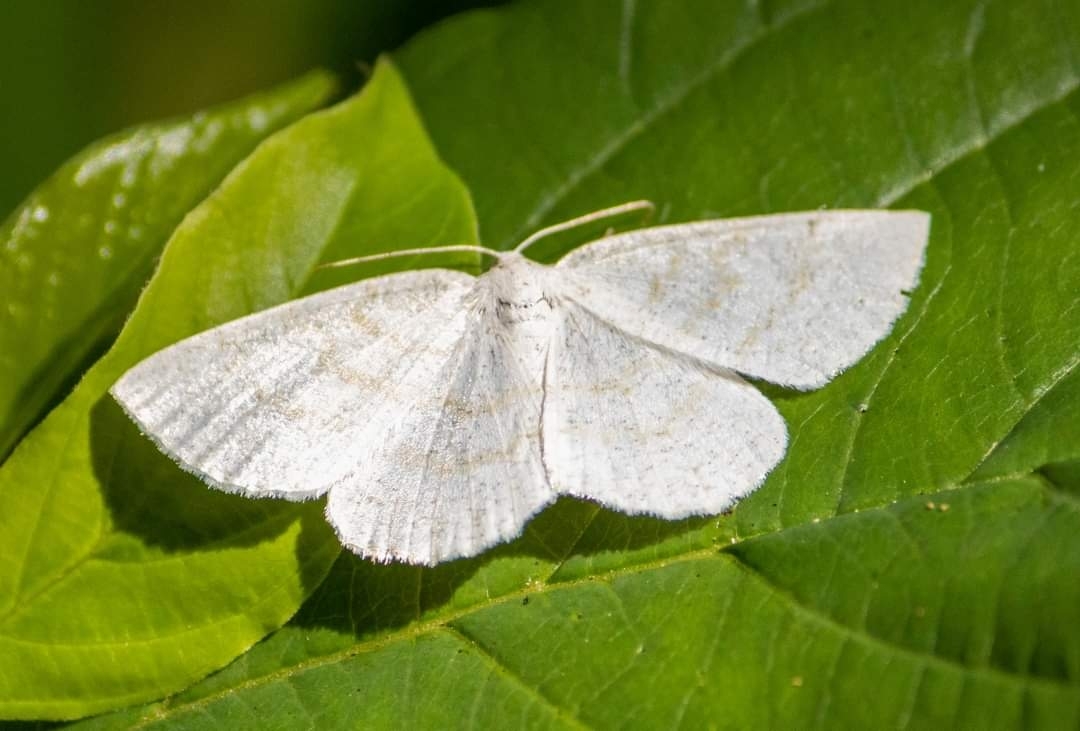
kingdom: Animalia
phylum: Arthropoda
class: Insecta
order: Lepidoptera
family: Geometridae
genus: Cabera
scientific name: Cabera exanthemata
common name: Common wave
